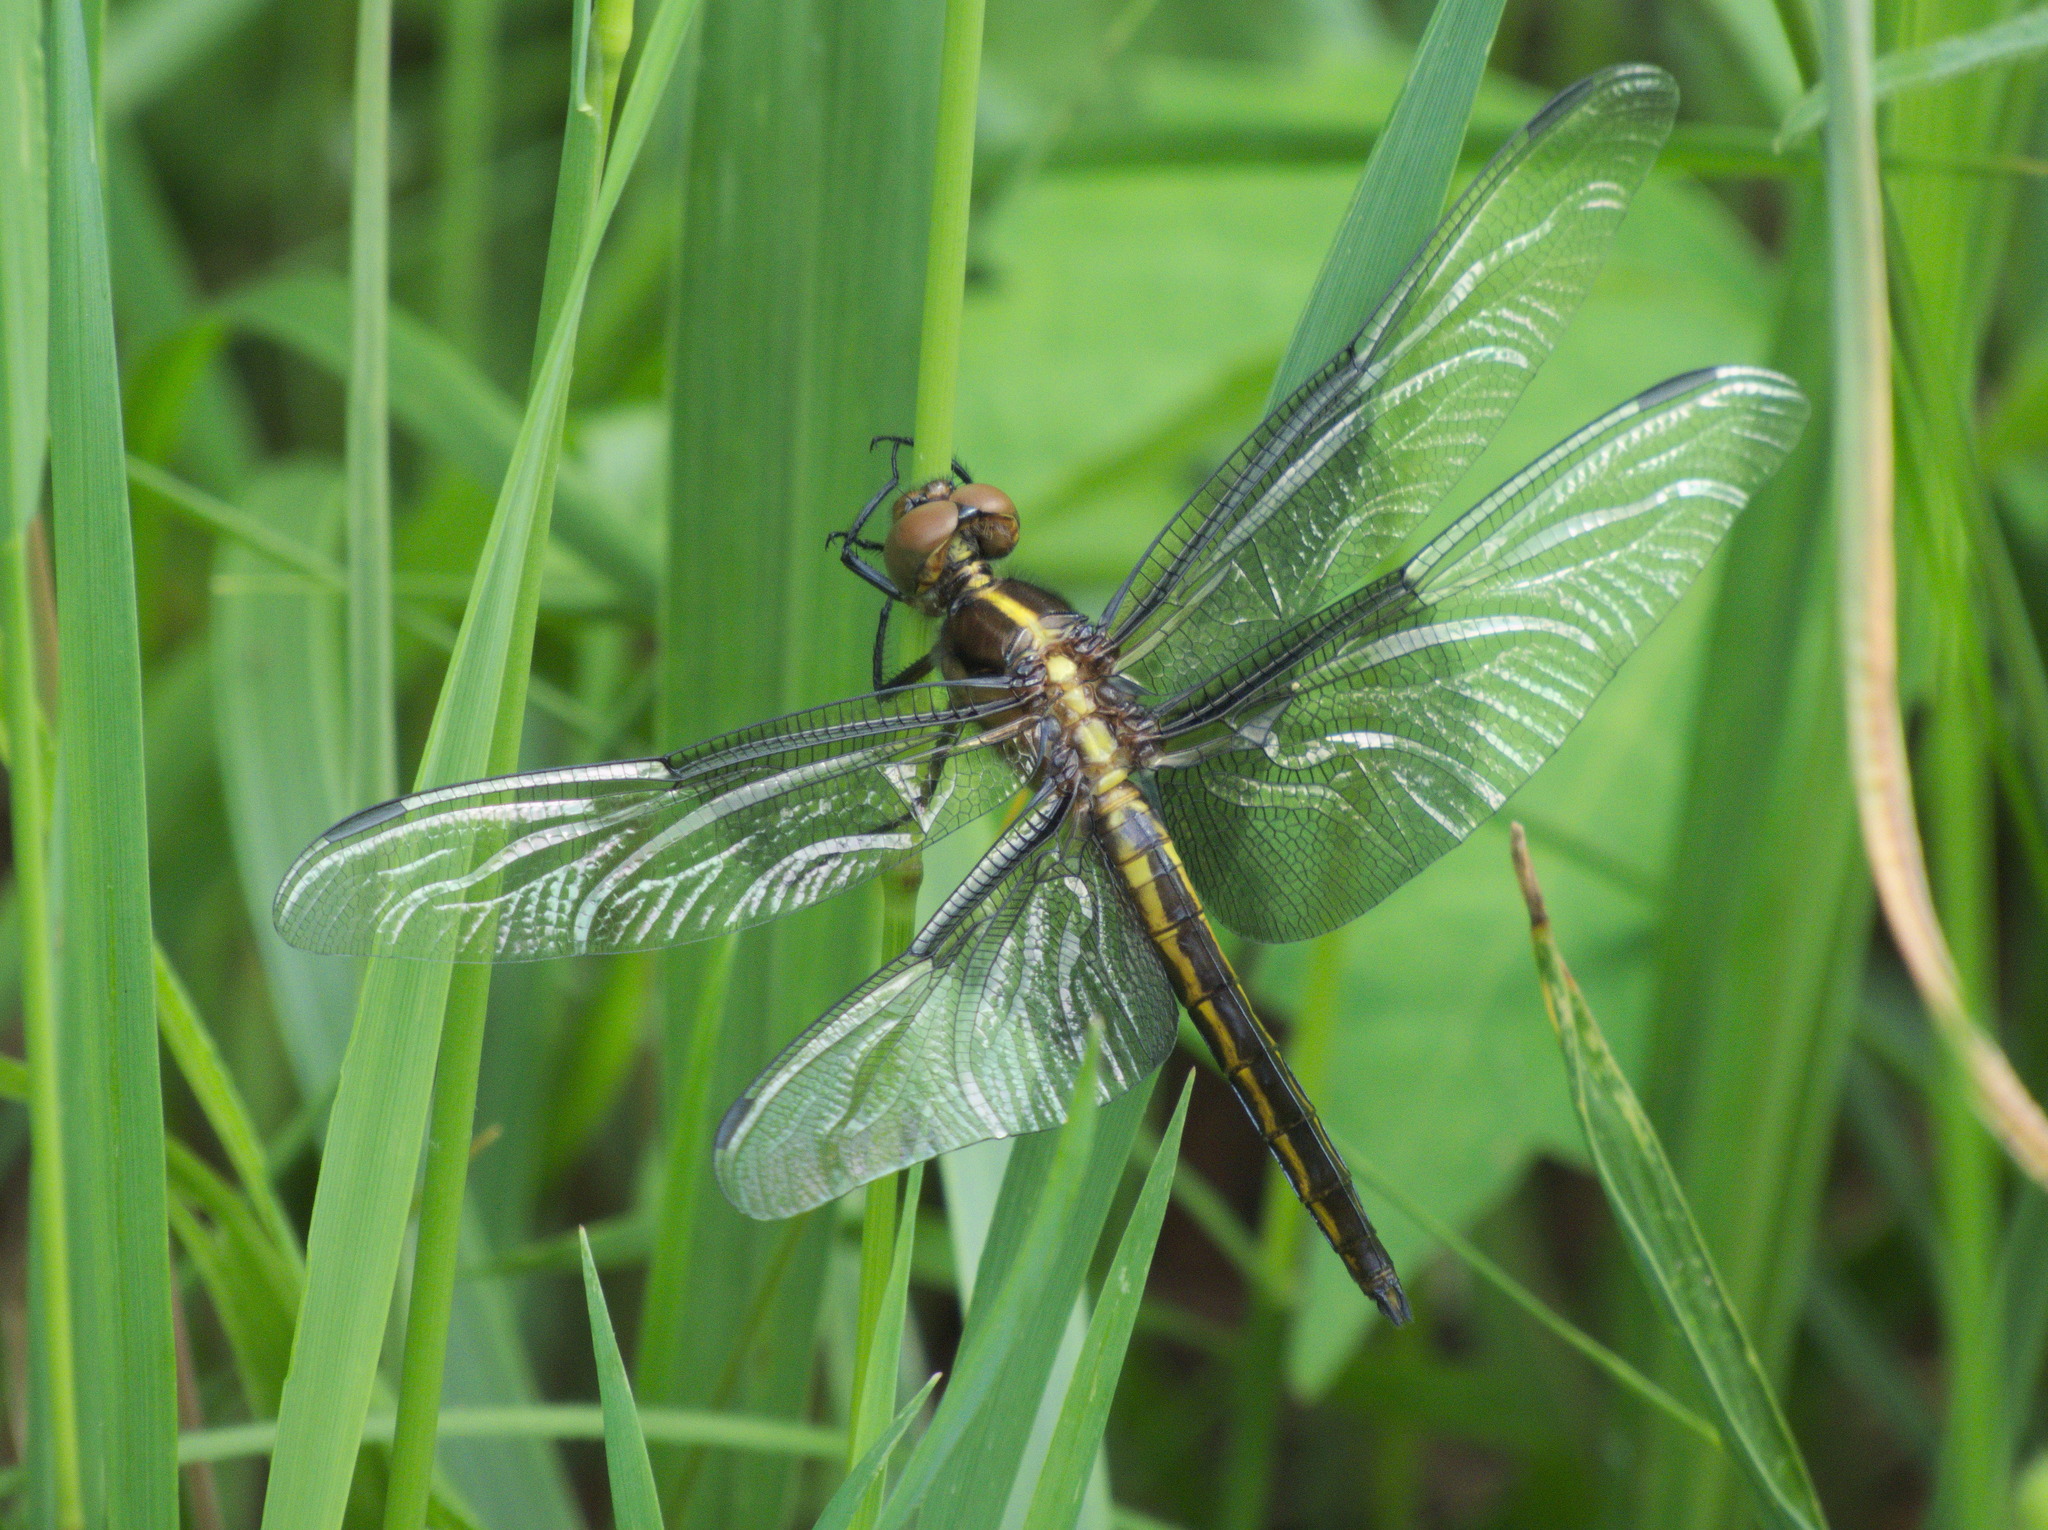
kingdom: Animalia
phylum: Arthropoda
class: Insecta
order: Odonata
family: Libellulidae
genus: Libellula
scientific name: Libellula luctuosa
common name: Widow skimmer
